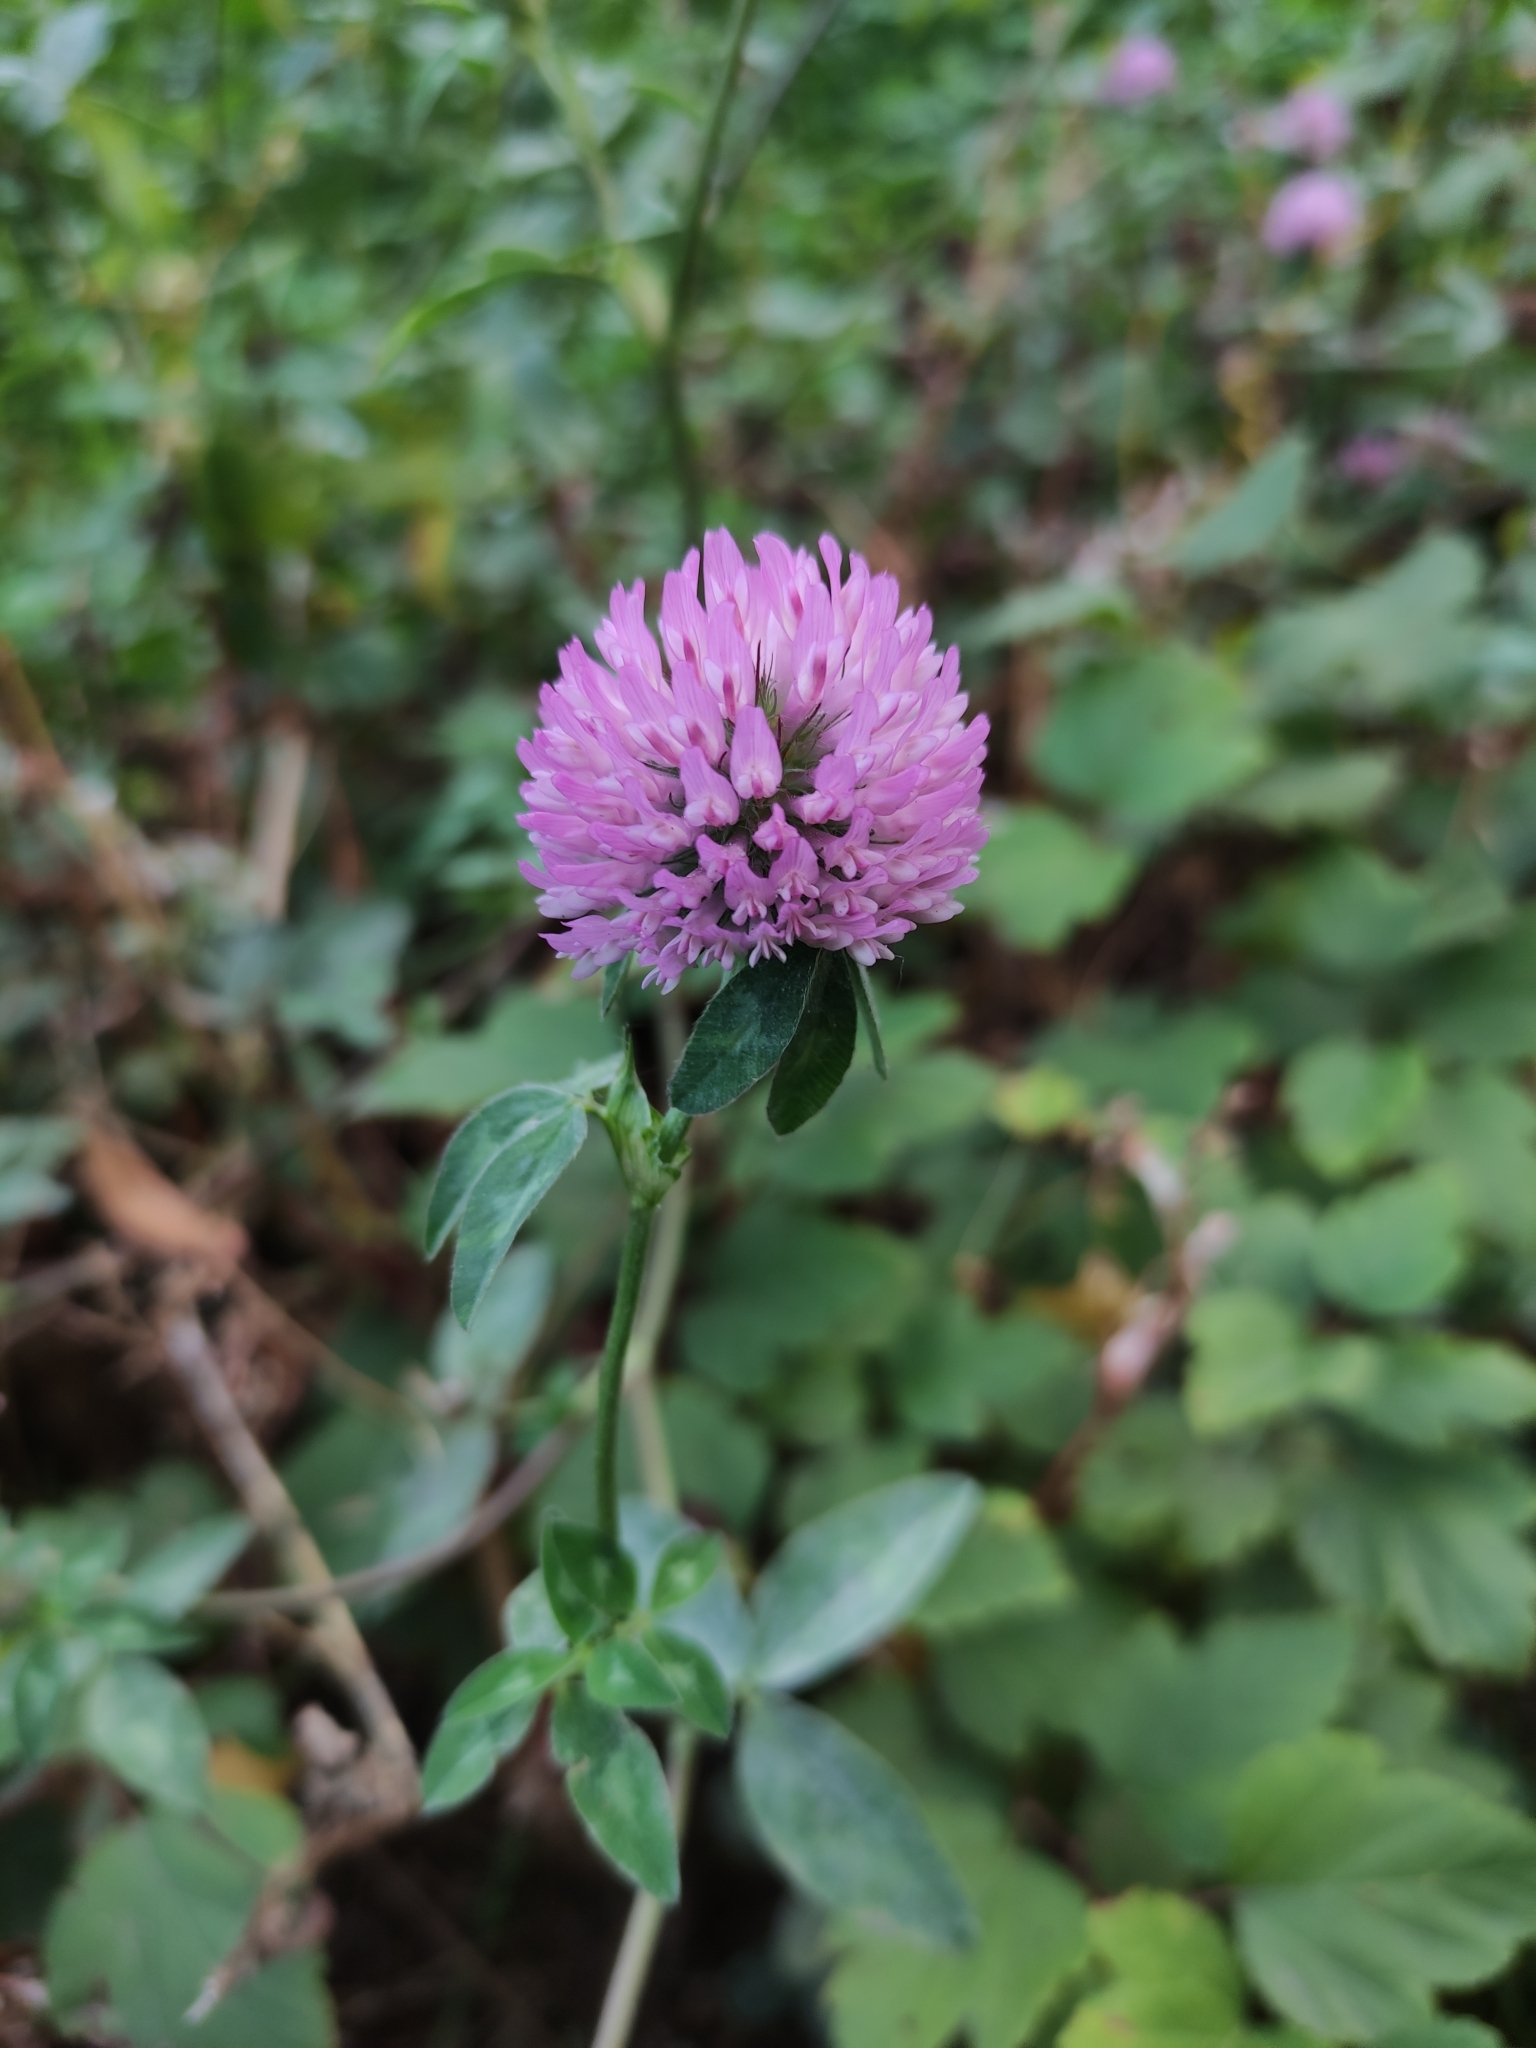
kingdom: Plantae
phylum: Tracheophyta
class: Magnoliopsida
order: Fabales
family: Fabaceae
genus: Trifolium
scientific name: Trifolium pratense
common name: Red clover
